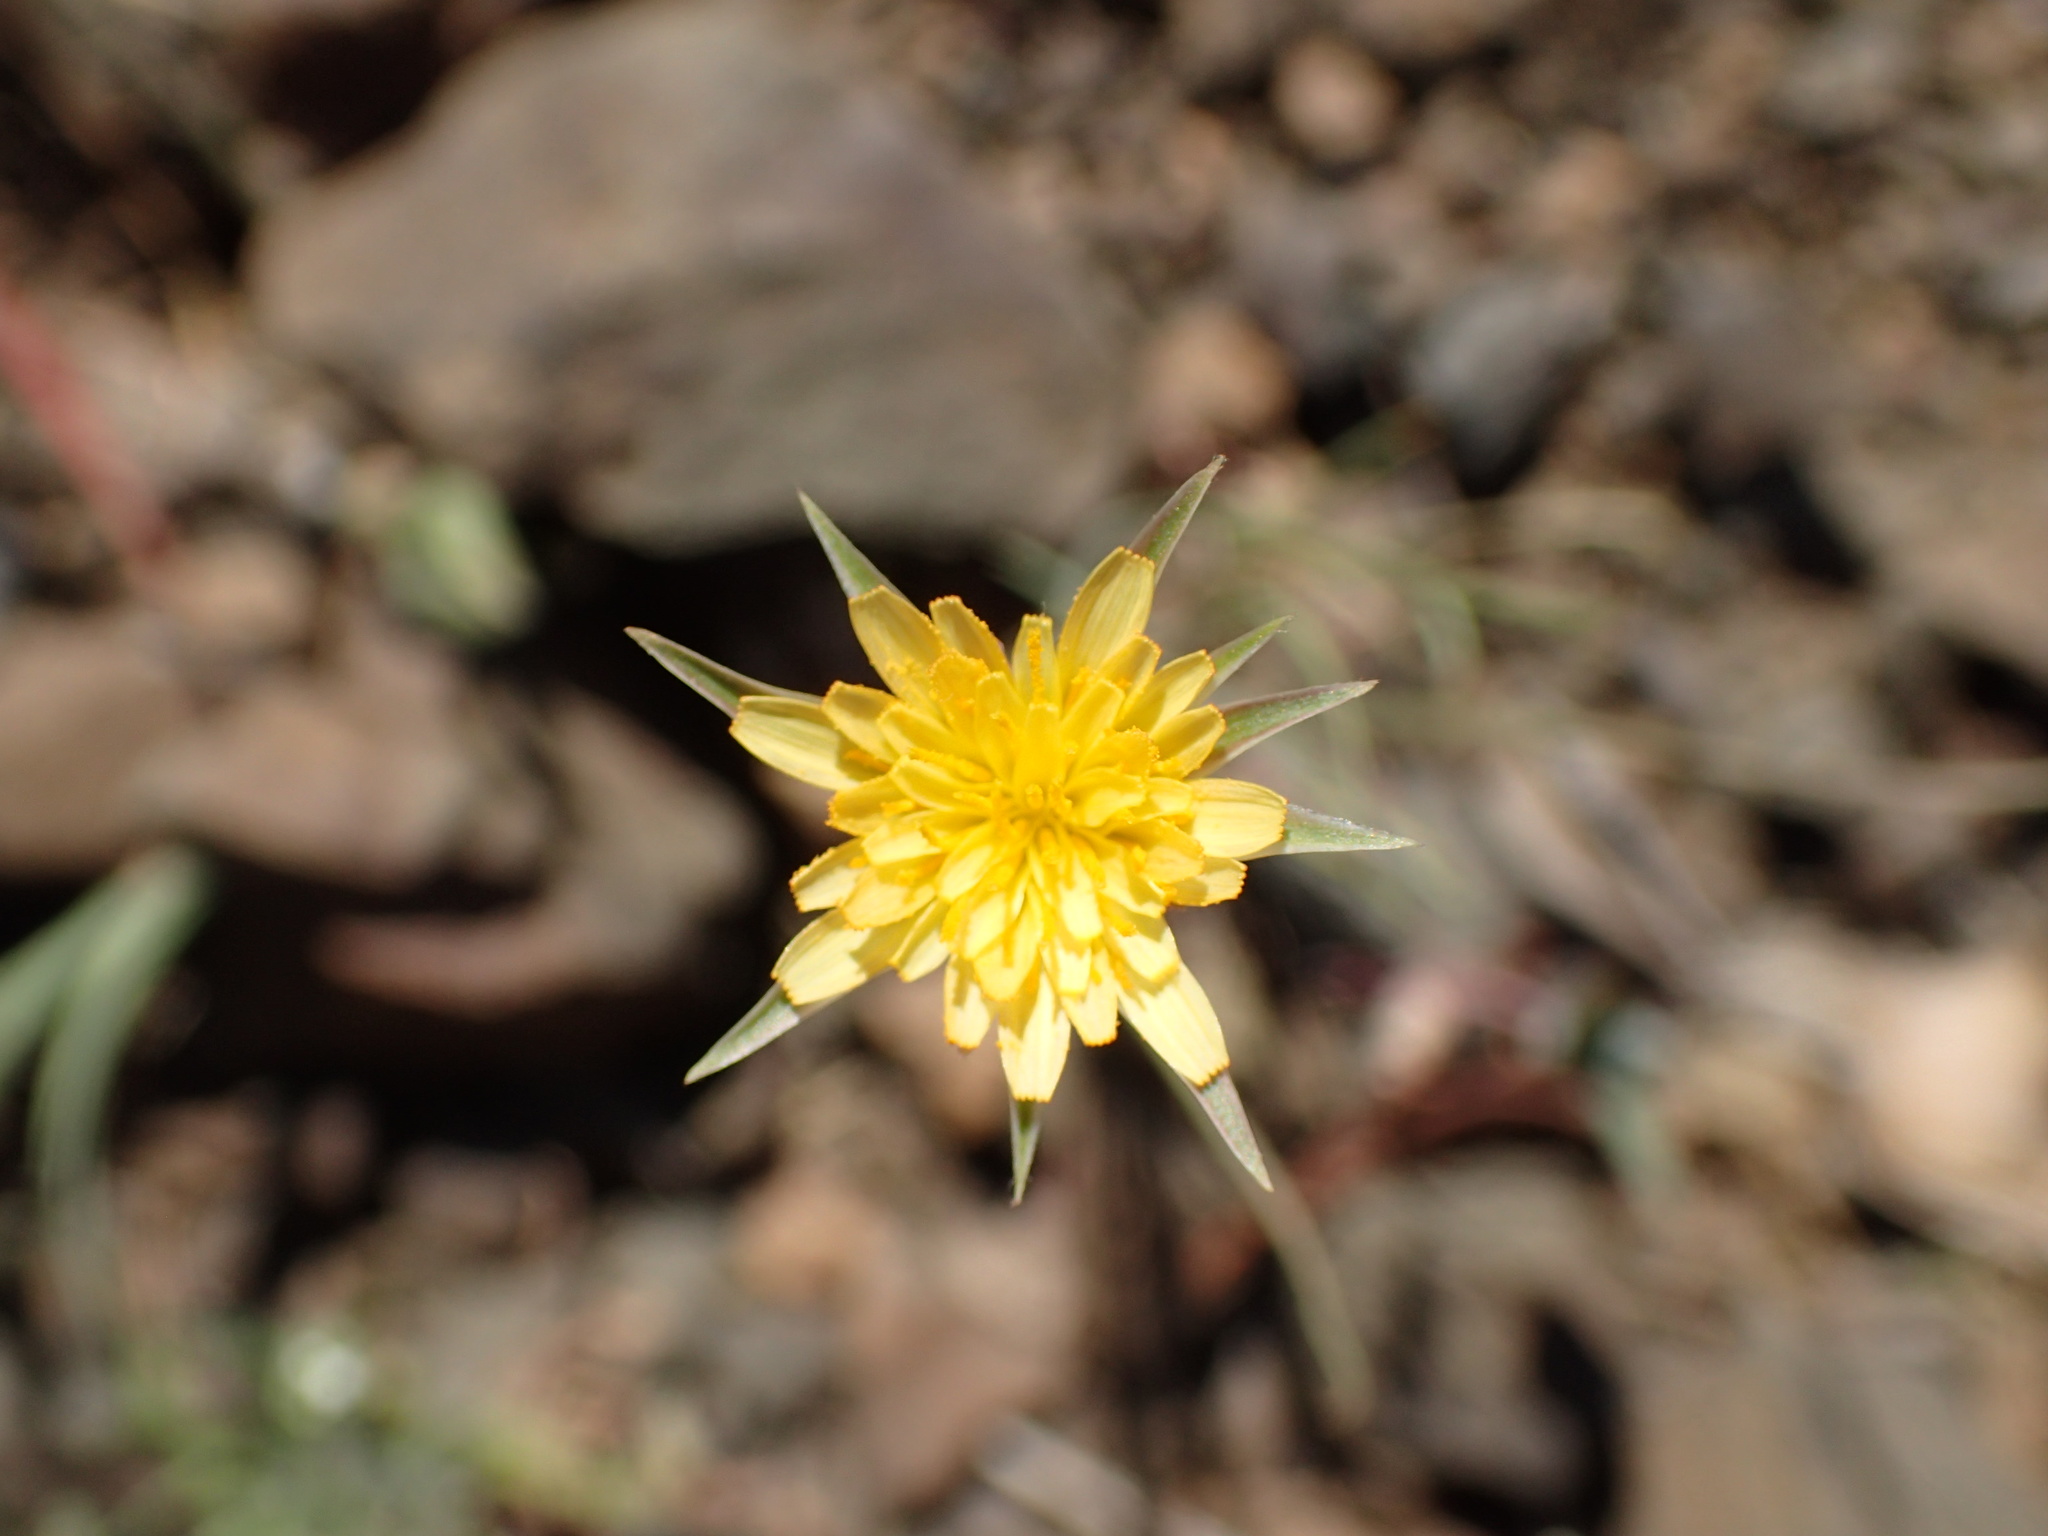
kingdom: Plantae
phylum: Tracheophyta
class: Magnoliopsida
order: Asterales
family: Asteraceae
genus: Microseris
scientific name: Microseris lindleyi
